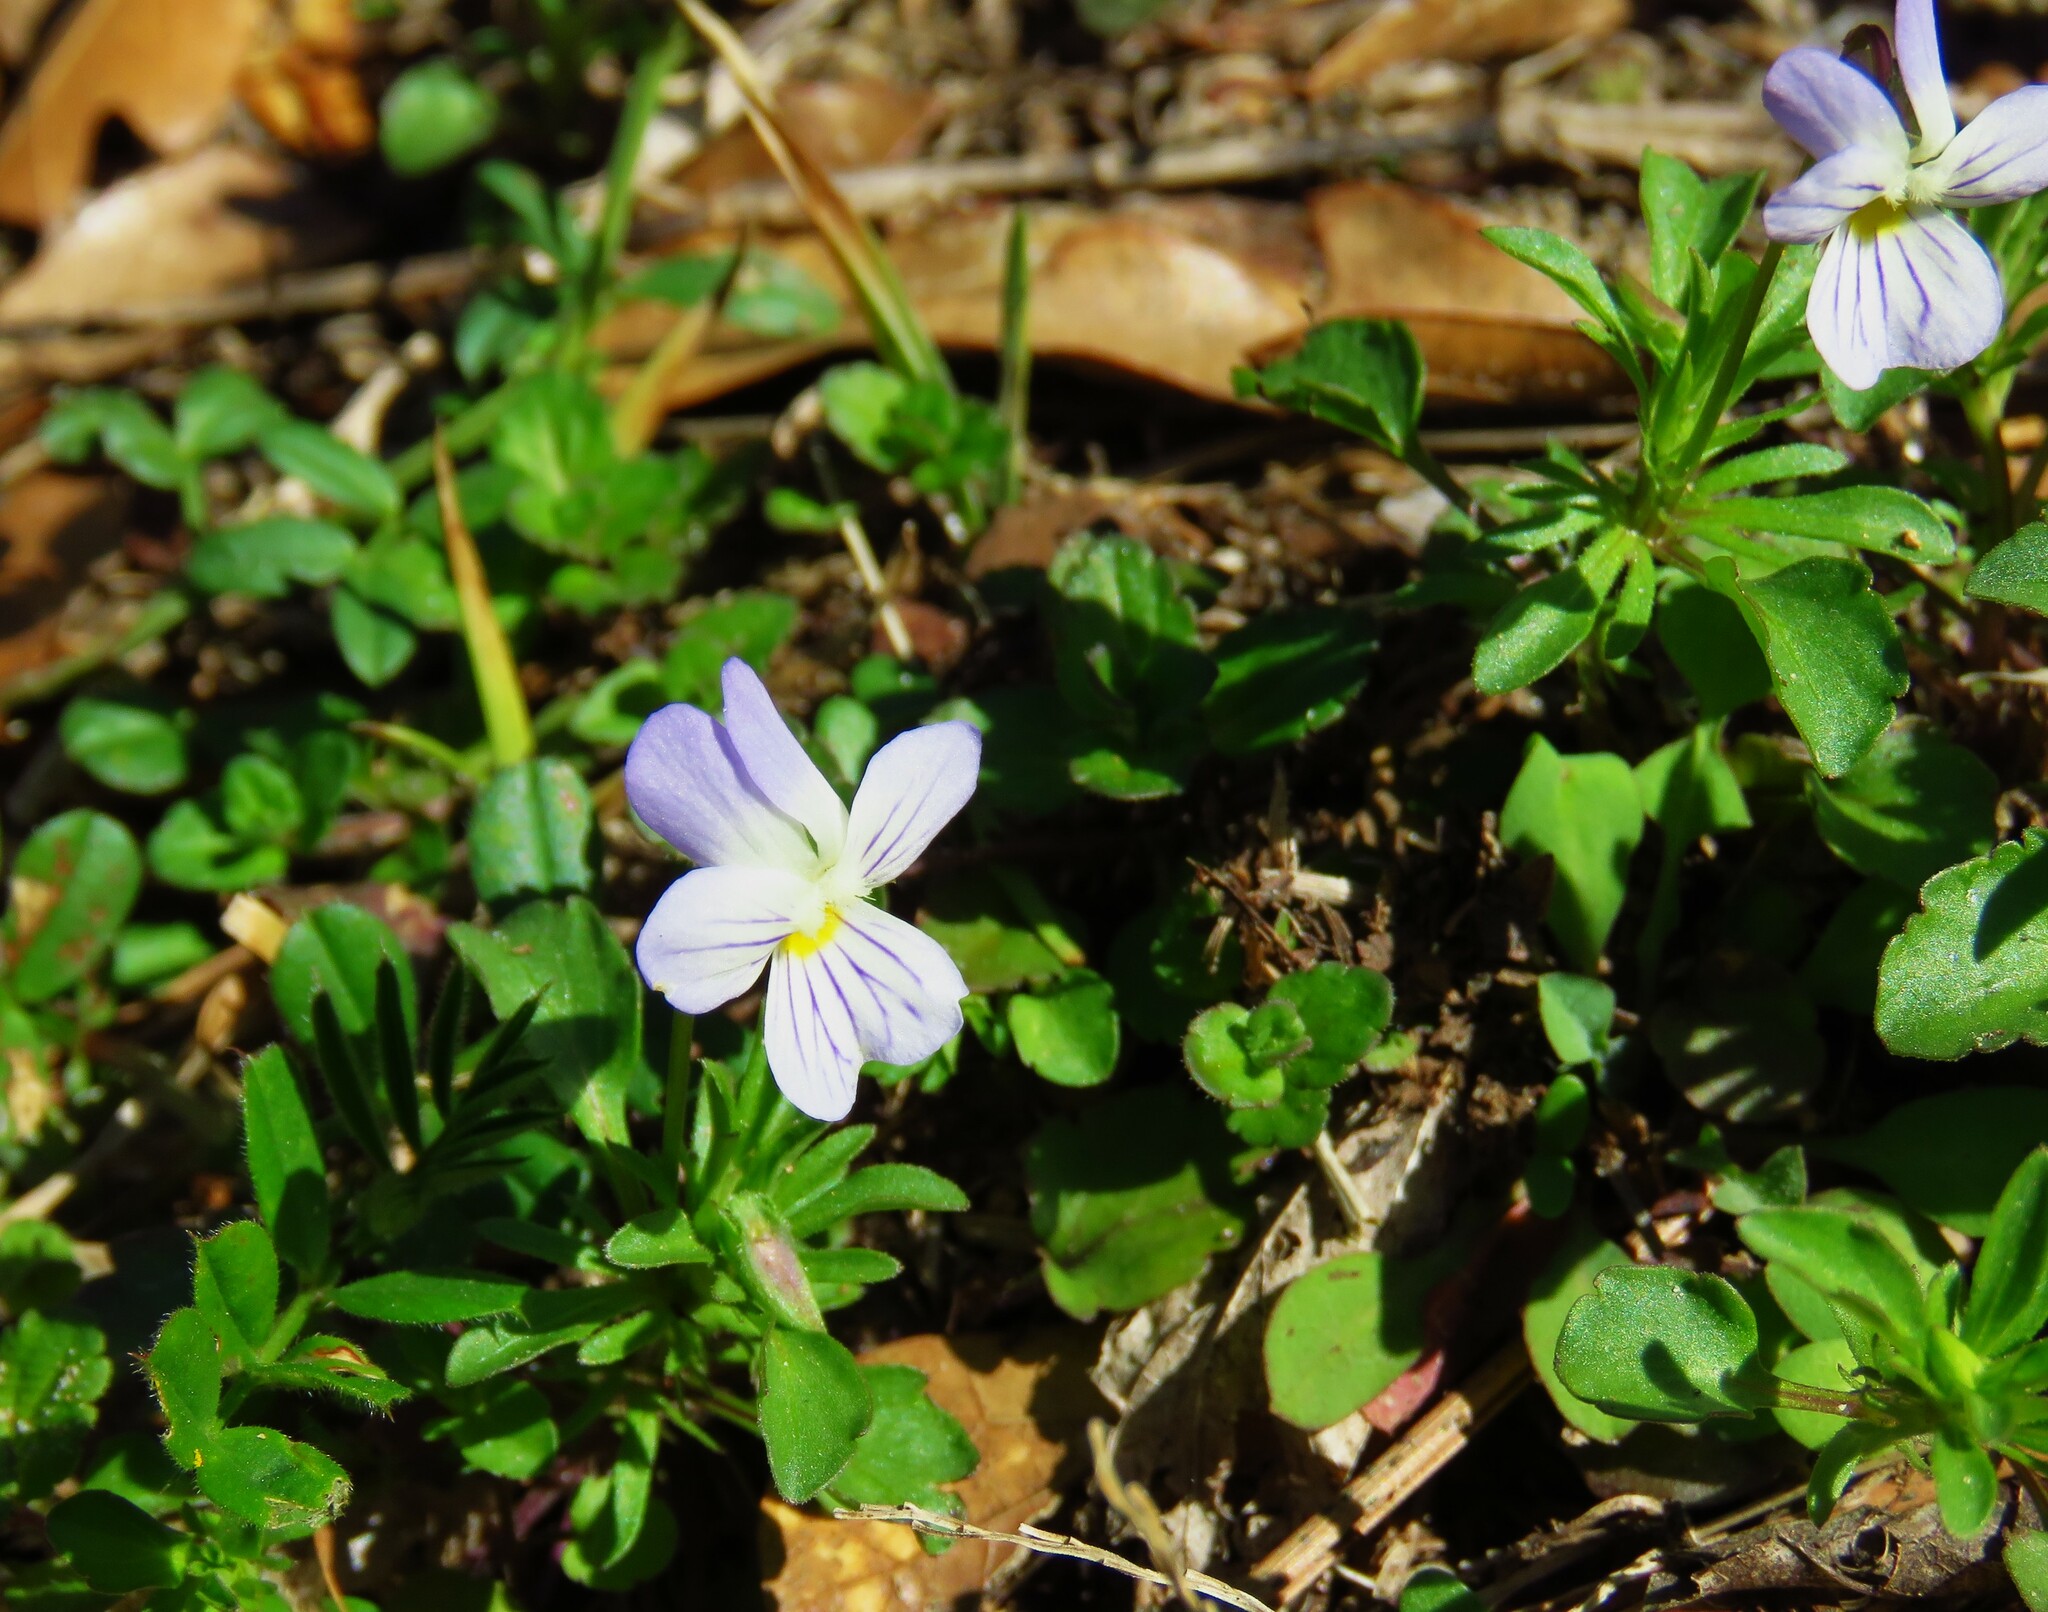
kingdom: Plantae
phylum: Tracheophyta
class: Magnoliopsida
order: Malpighiales
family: Violaceae
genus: Viola
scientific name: Viola rafinesquei
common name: American field pansy
